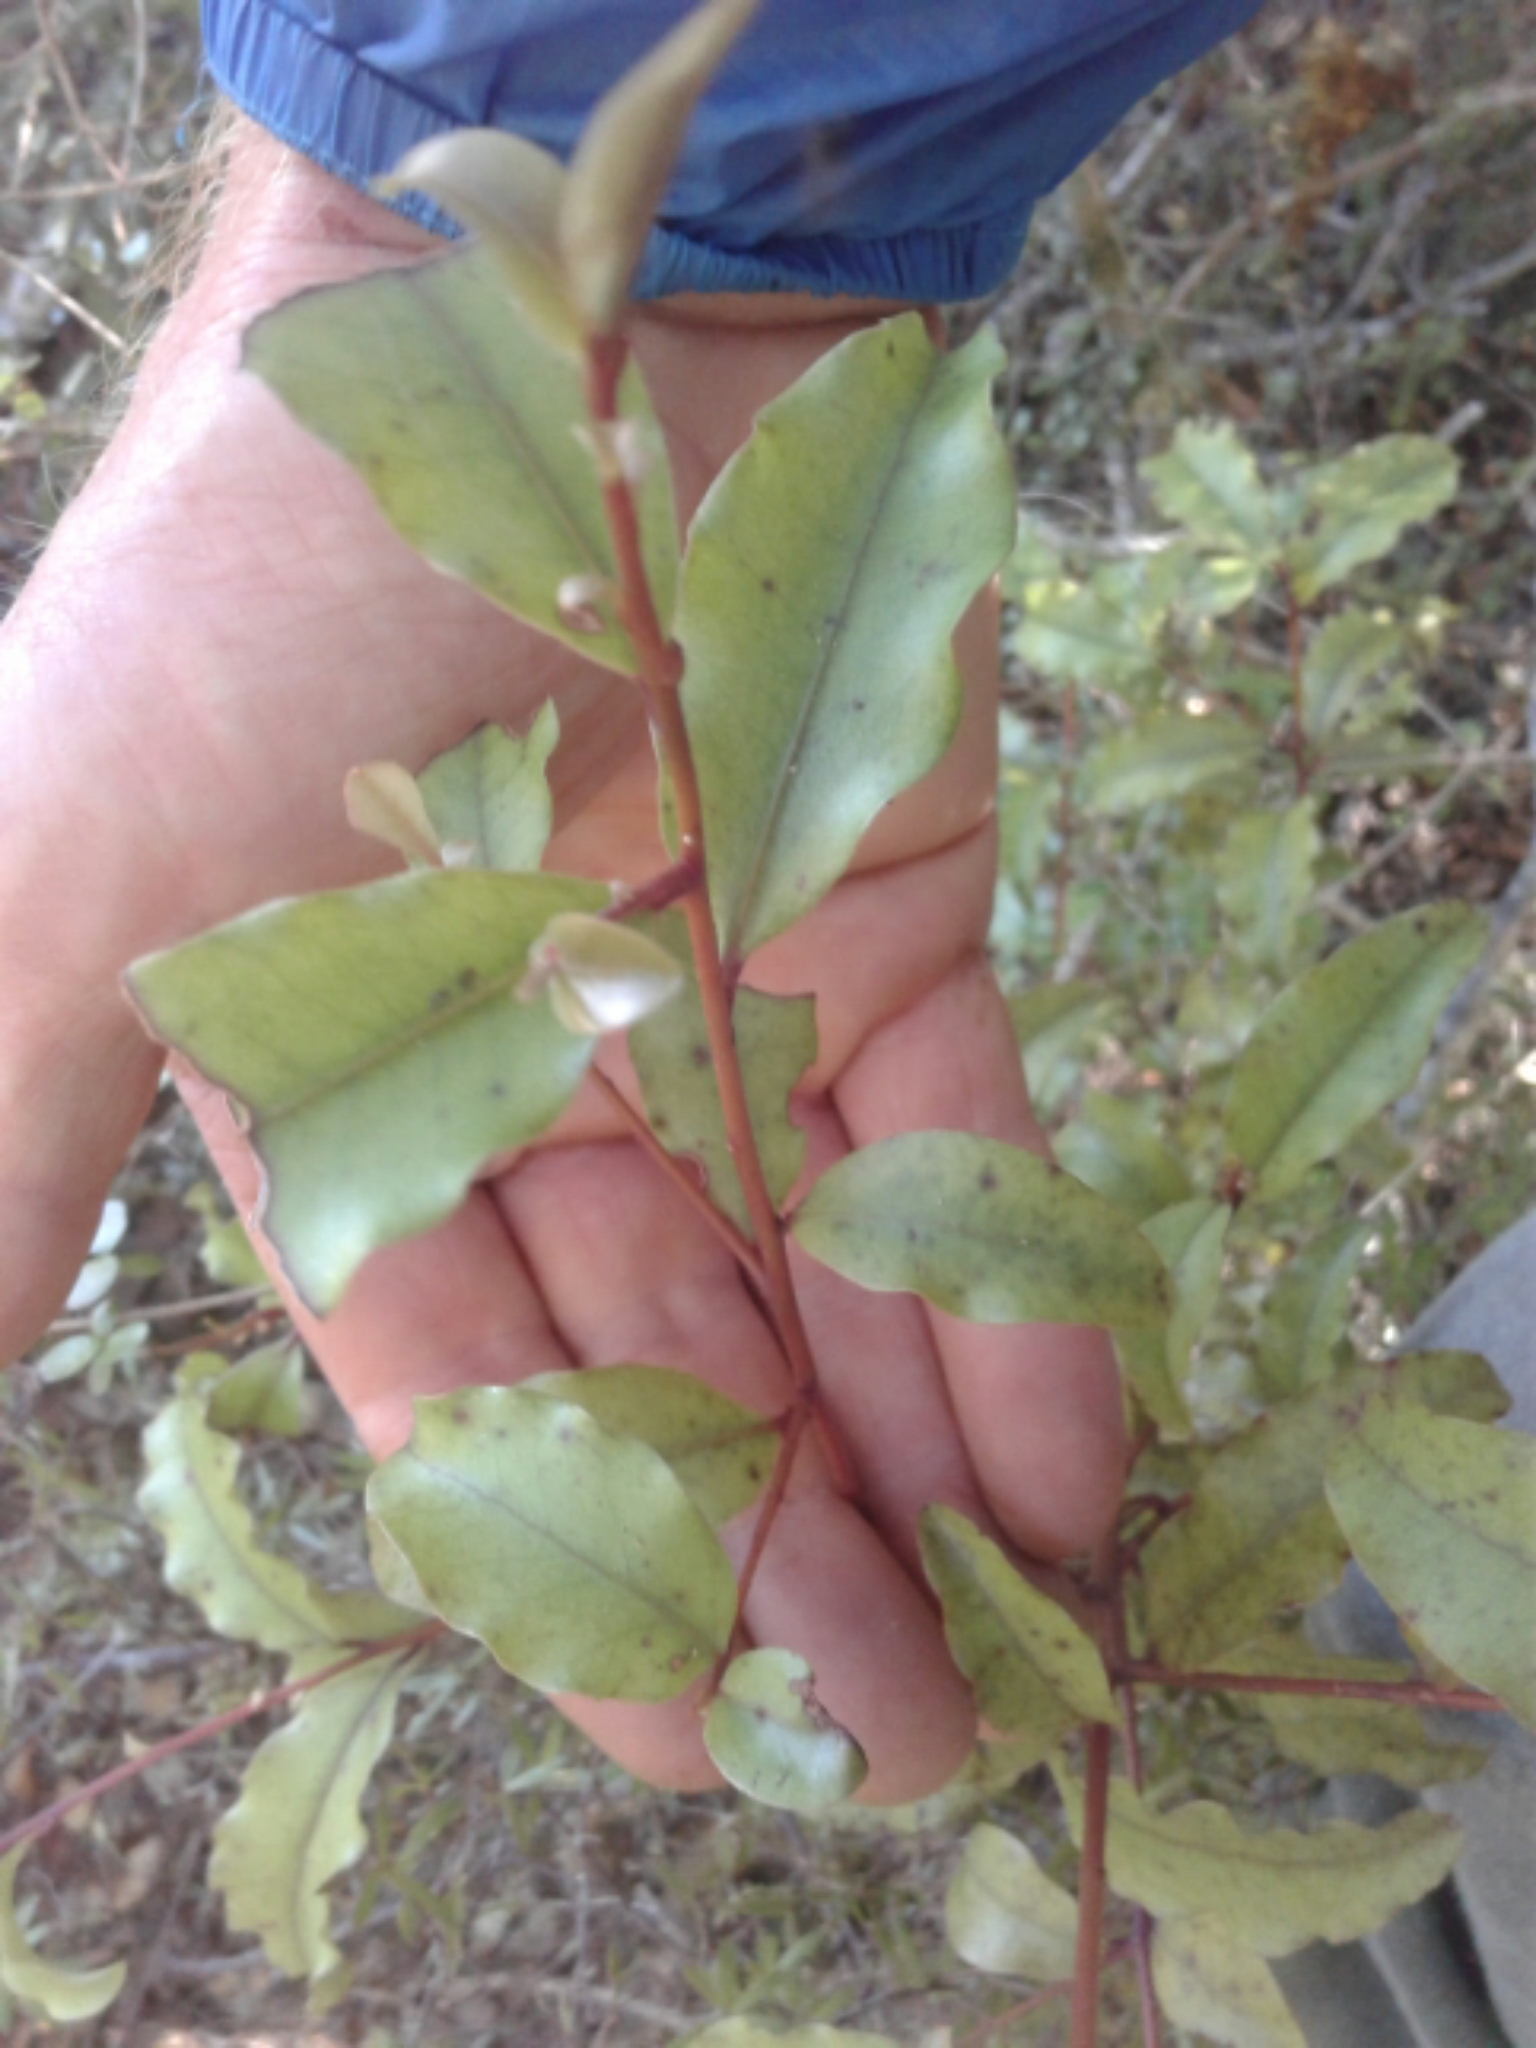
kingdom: Plantae
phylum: Tracheophyta
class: Magnoliopsida
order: Ericales
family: Primulaceae
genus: Myrsine
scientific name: Myrsine australis
